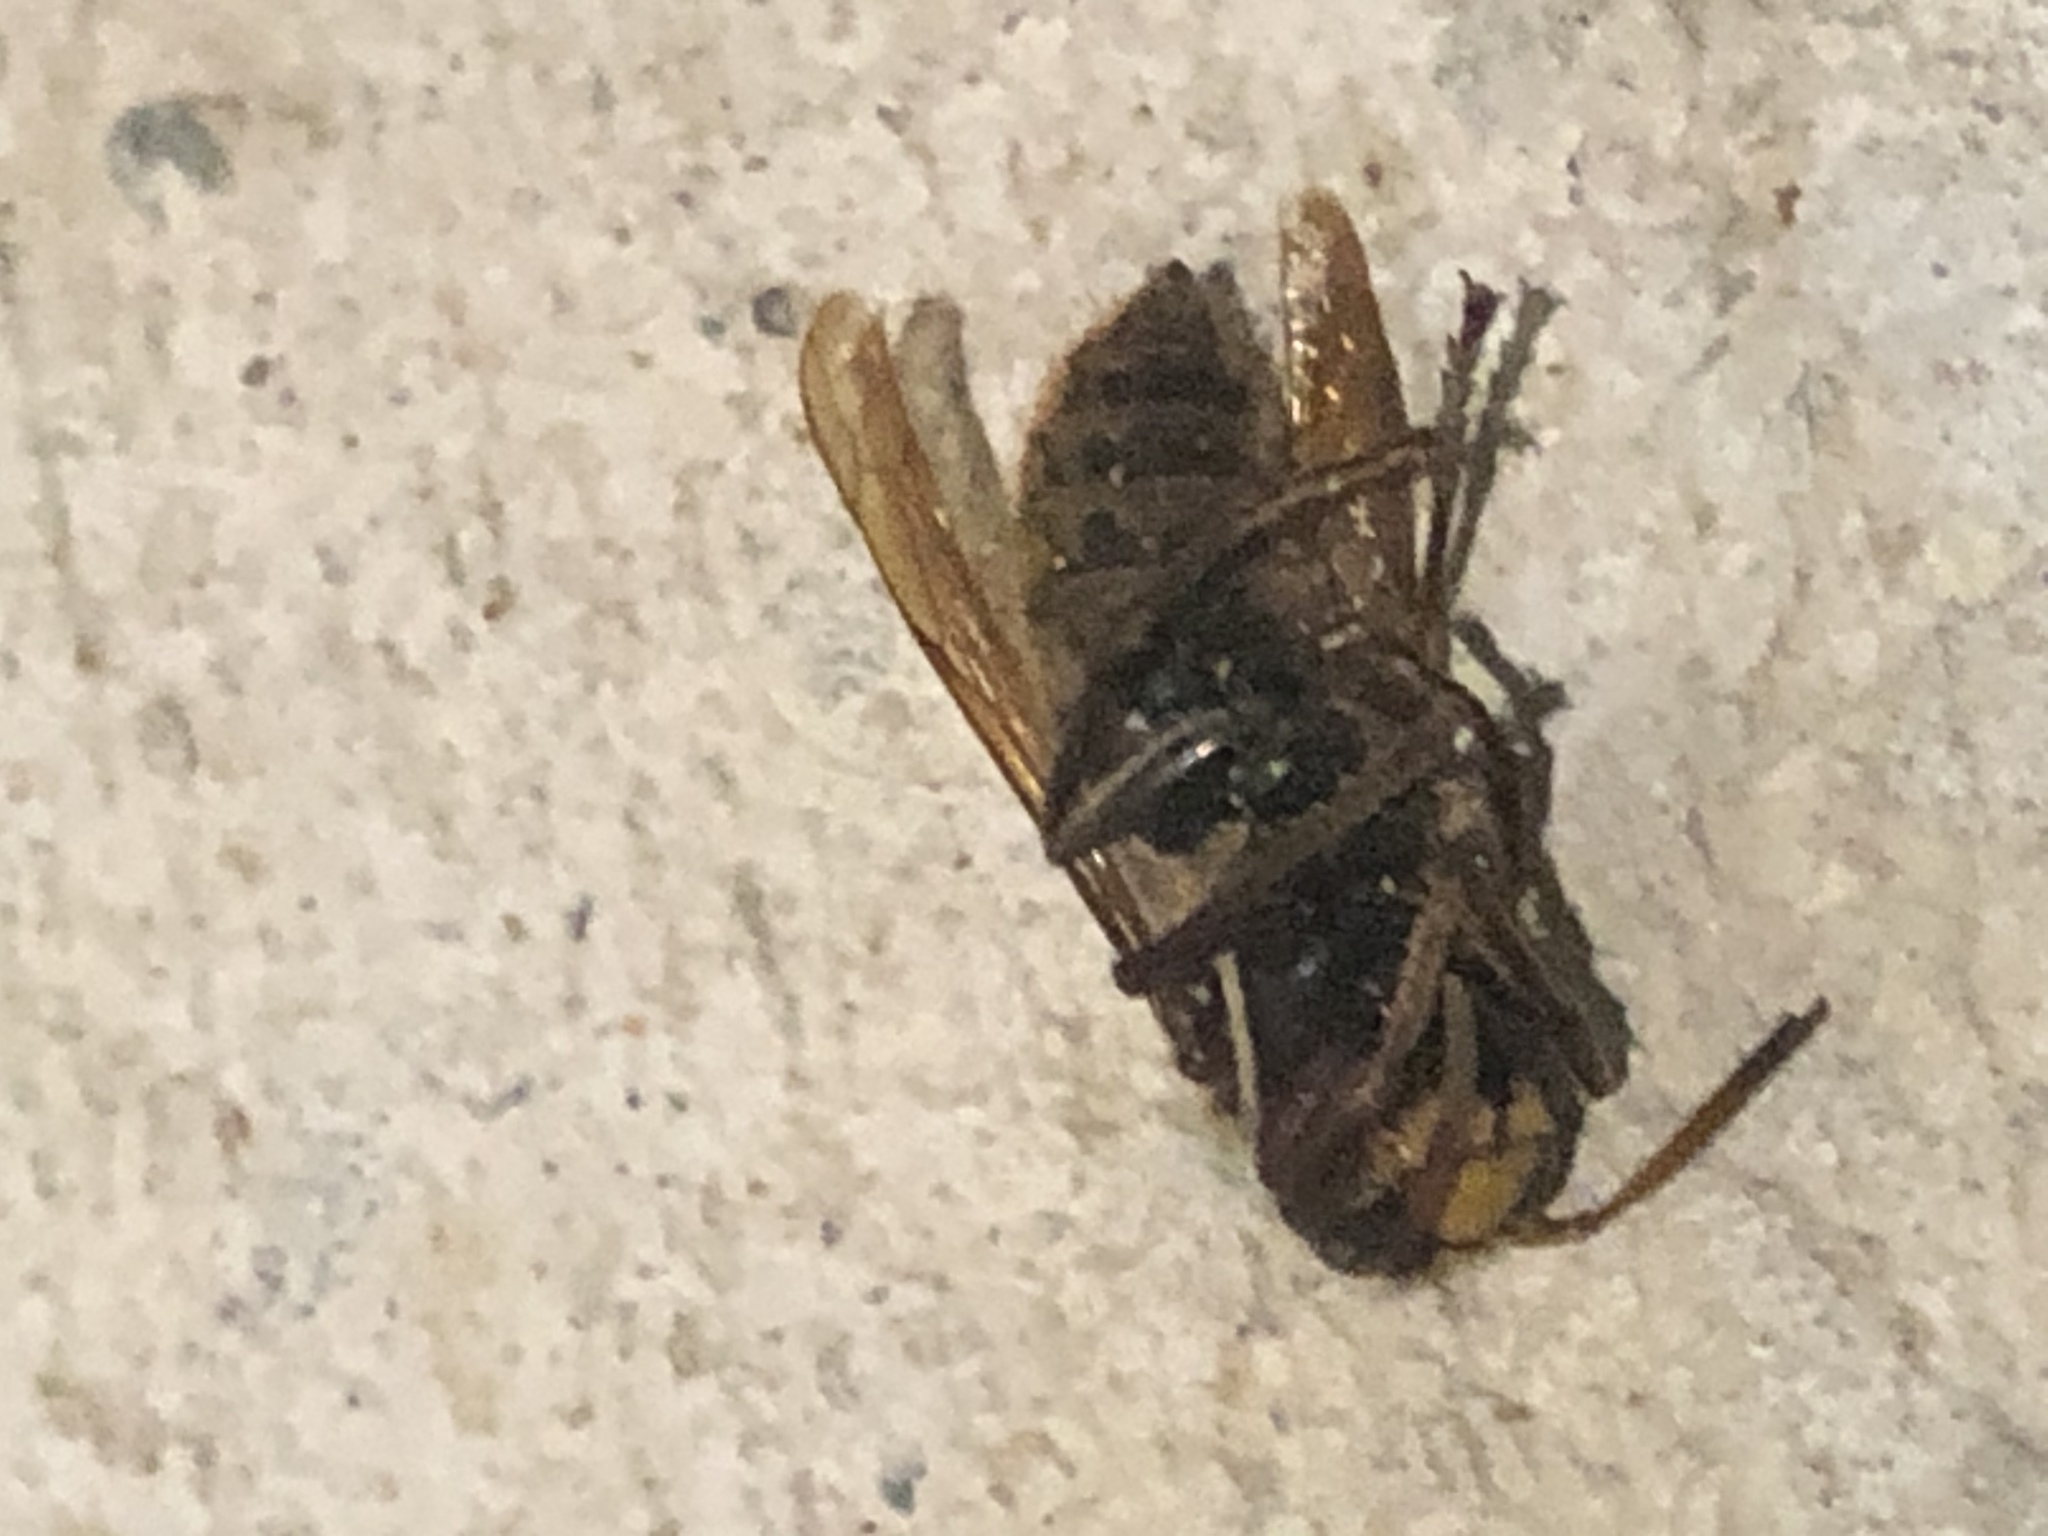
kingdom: Animalia
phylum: Arthropoda
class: Insecta
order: Hymenoptera
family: Vespidae
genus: Vespa
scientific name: Vespa crabro
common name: Hornet
